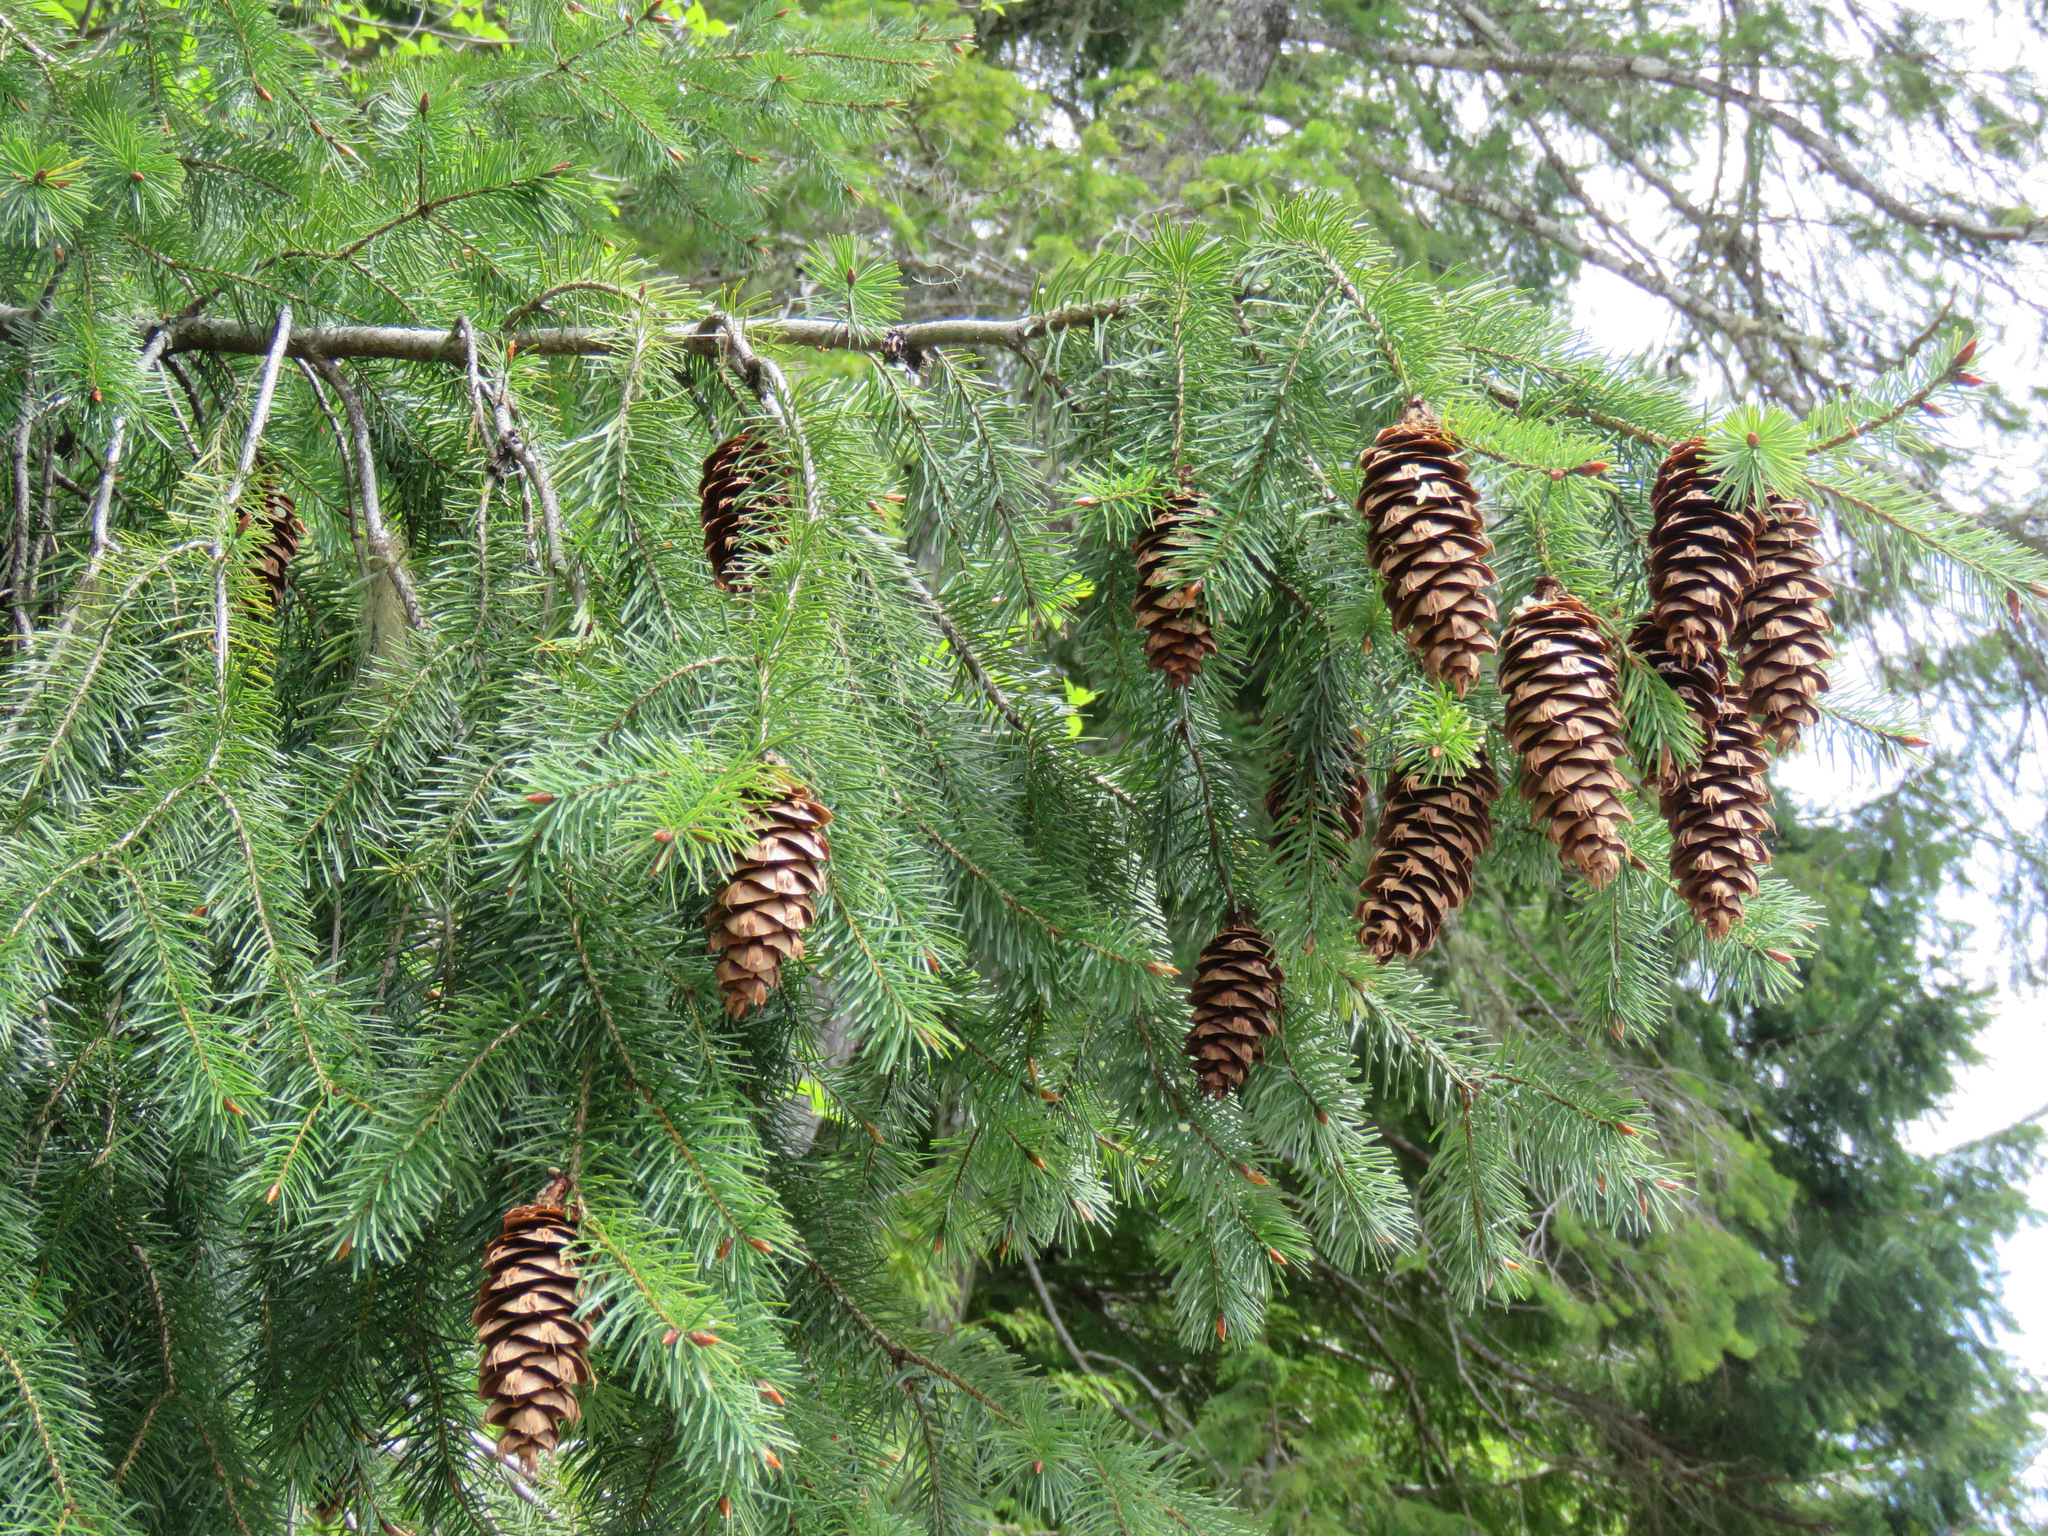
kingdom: Plantae
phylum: Tracheophyta
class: Pinopsida
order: Pinales
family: Pinaceae
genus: Pseudotsuga
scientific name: Pseudotsuga menziesii
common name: Douglas fir
